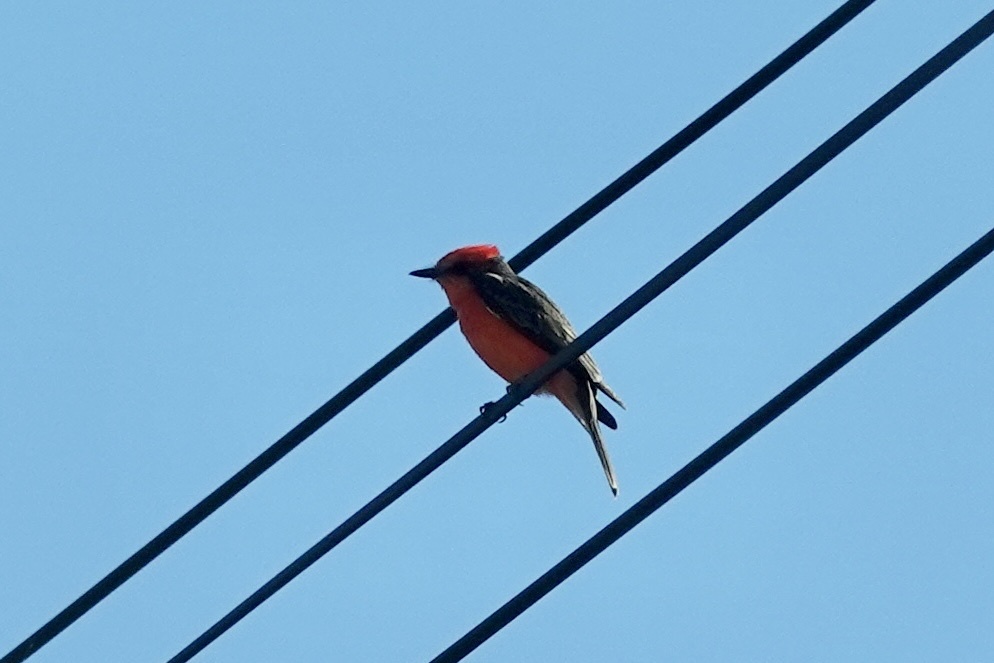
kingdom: Animalia
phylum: Chordata
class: Aves
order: Passeriformes
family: Tyrannidae
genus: Pyrocephalus
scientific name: Pyrocephalus rubinus
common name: Vermilion flycatcher
